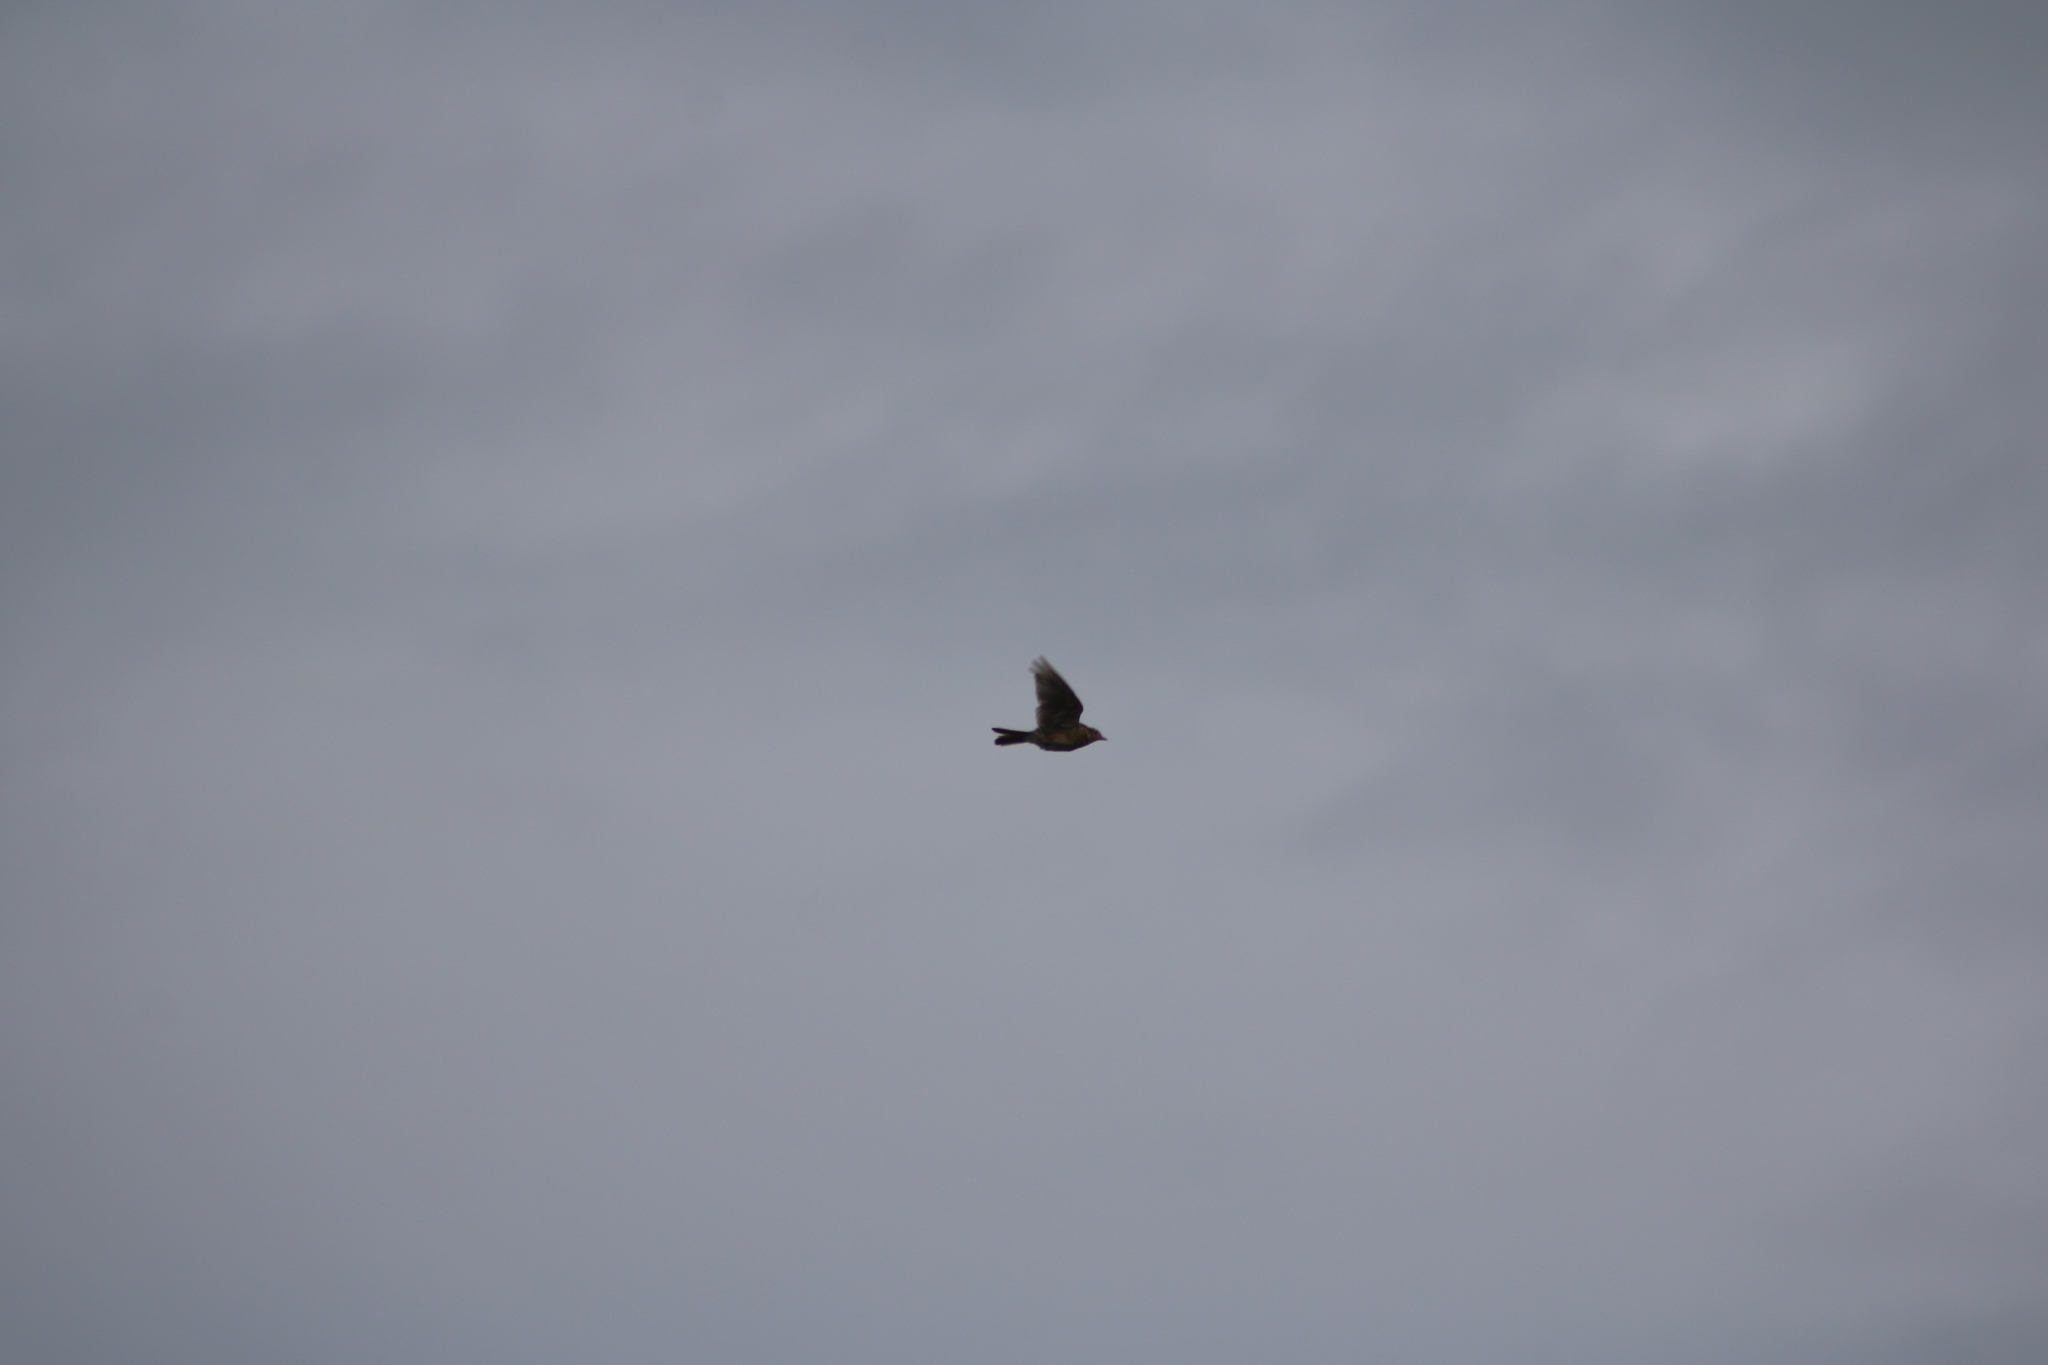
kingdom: Animalia
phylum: Chordata
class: Aves
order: Passeriformes
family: Alaudidae
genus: Alauda
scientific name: Alauda arvensis
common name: Eurasian skylark
